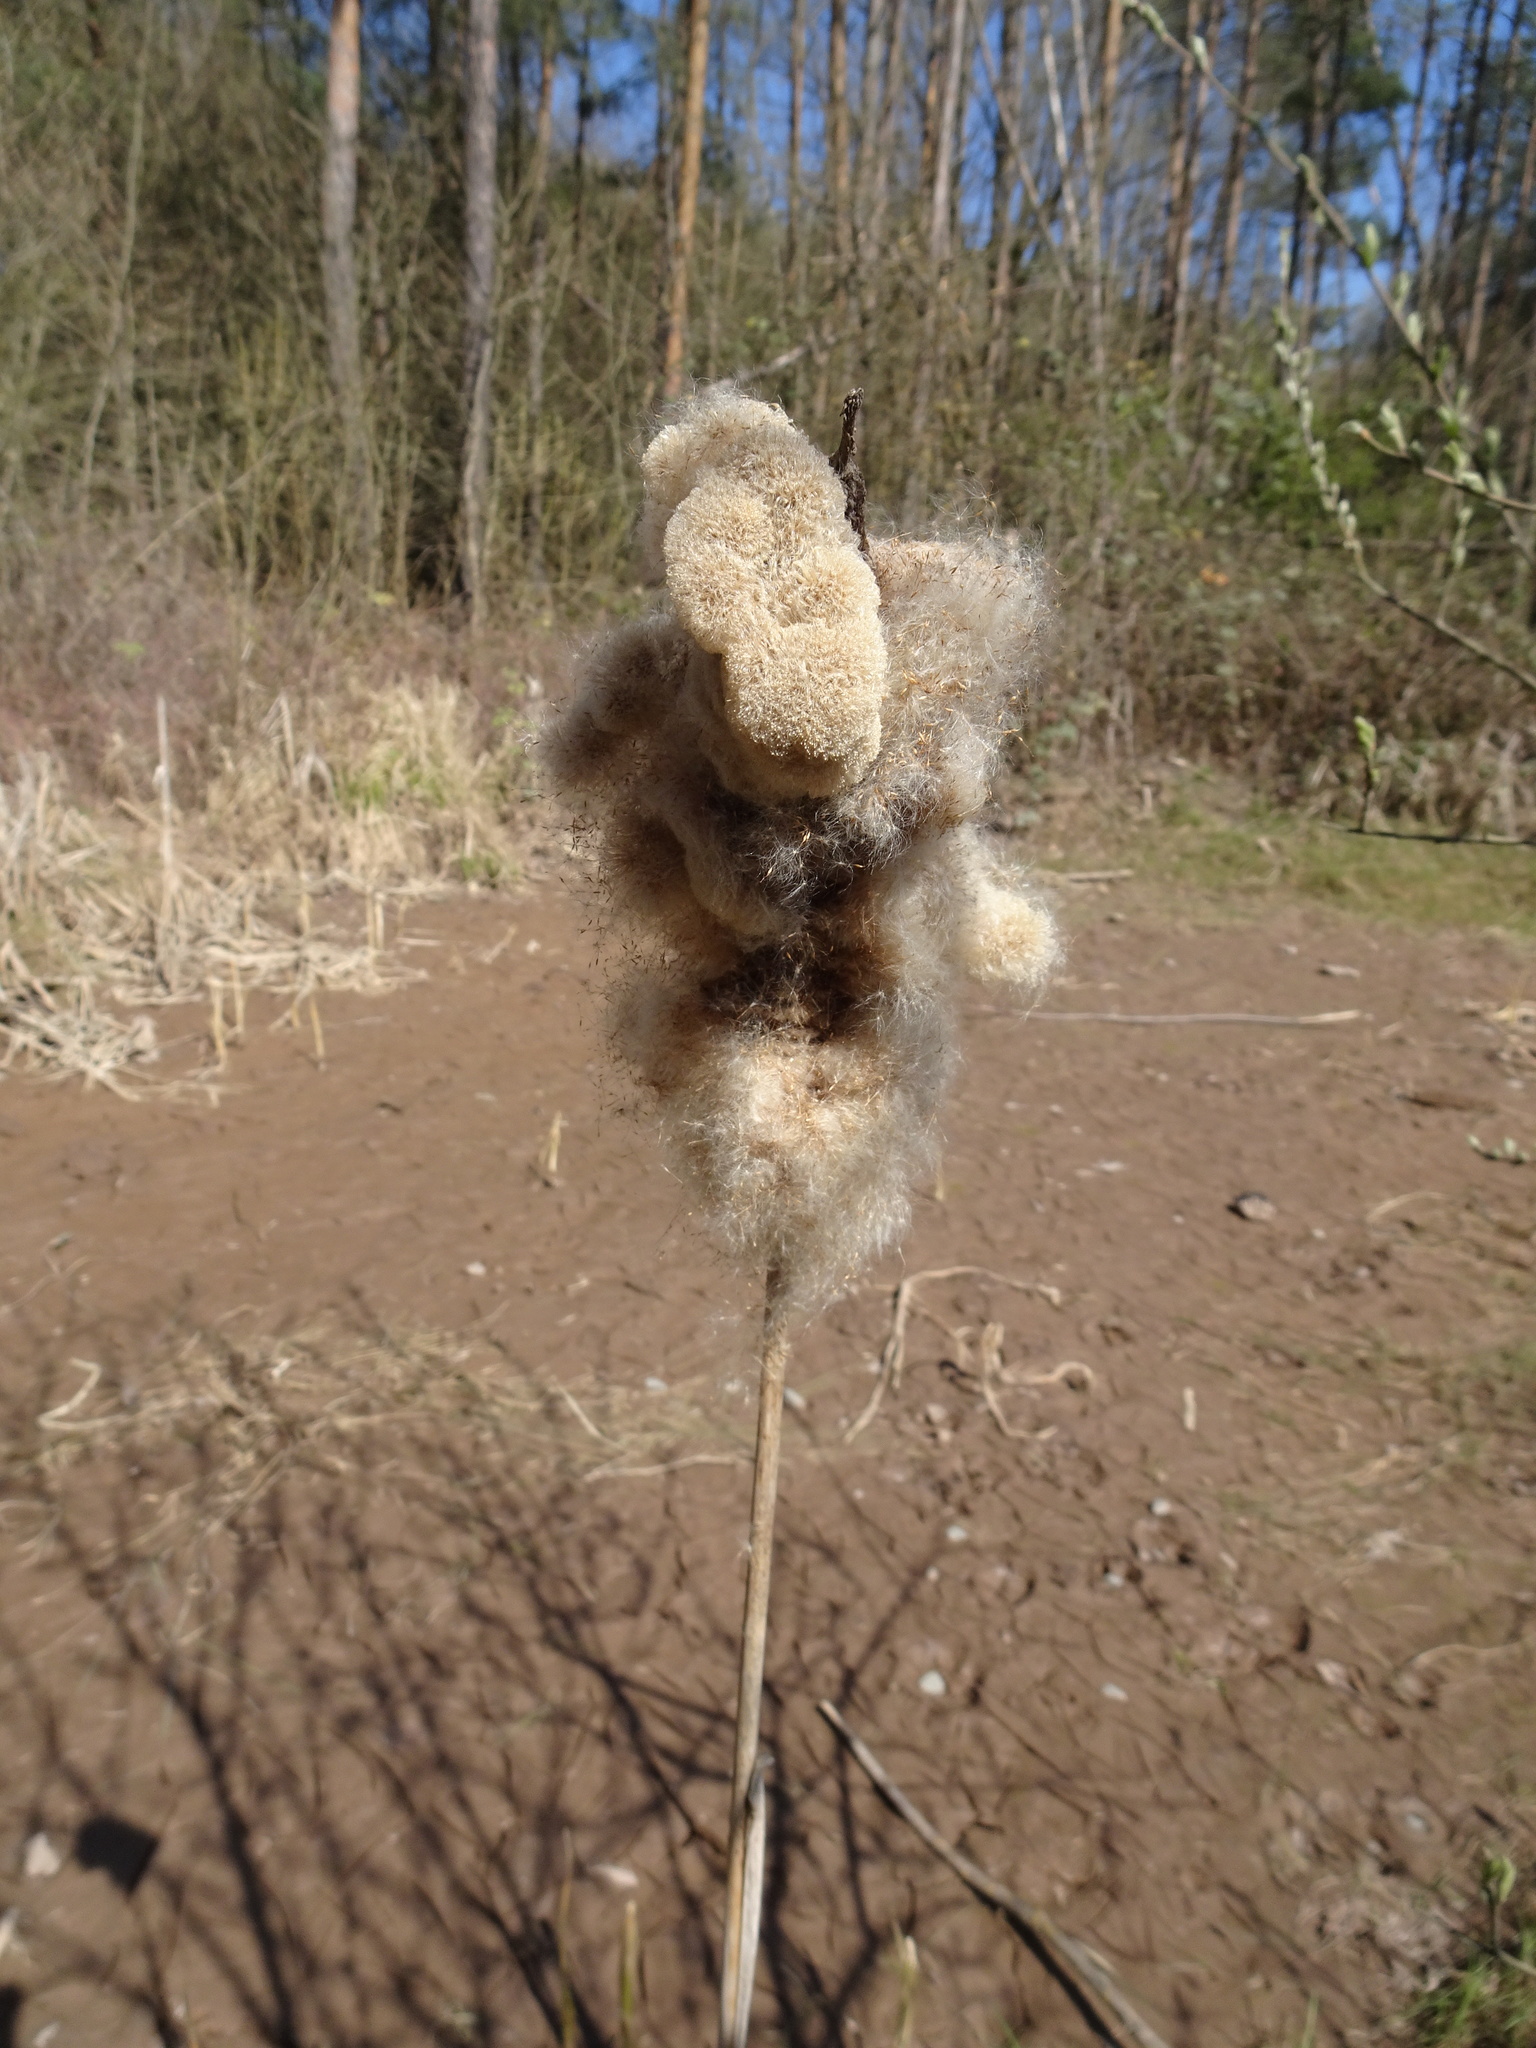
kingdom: Plantae
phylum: Tracheophyta
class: Liliopsida
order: Poales
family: Typhaceae
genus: Typha
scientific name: Typha latifolia
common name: Broadleaf cattail
